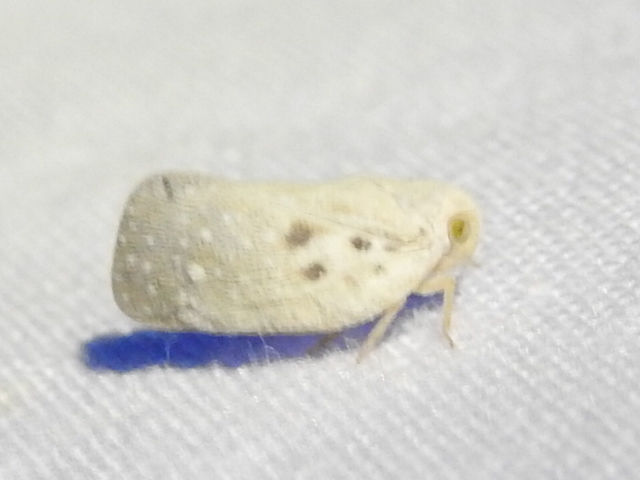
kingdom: Animalia
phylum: Arthropoda
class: Insecta
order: Hemiptera
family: Flatidae
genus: Metcalfa
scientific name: Metcalfa pruinosa
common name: Citrus flatid planthopper
